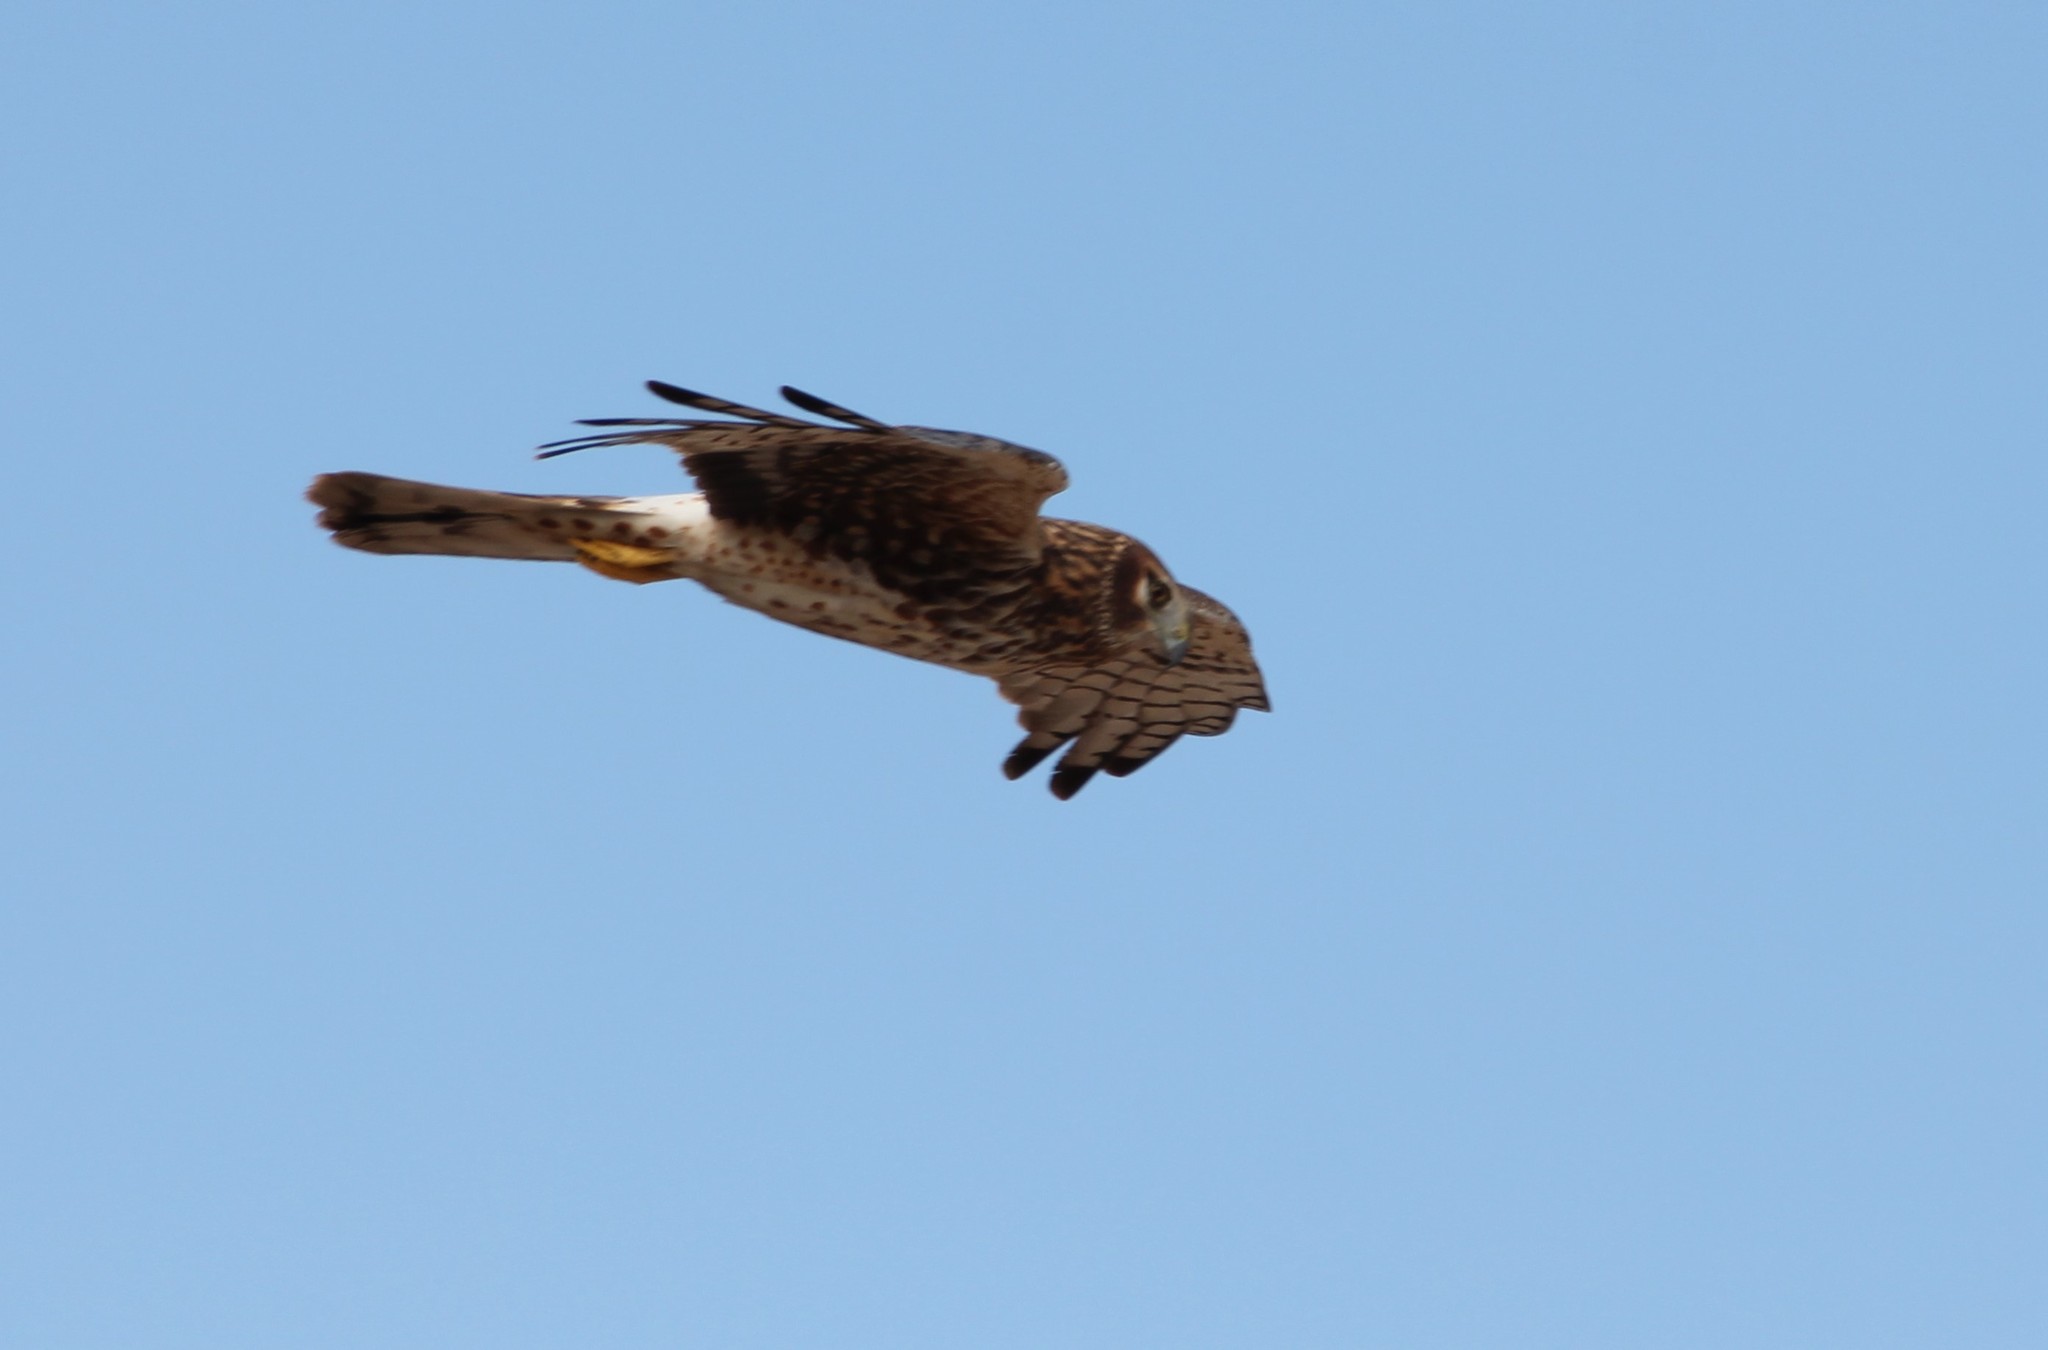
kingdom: Animalia
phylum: Chordata
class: Aves
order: Accipitriformes
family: Accipitridae
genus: Circus
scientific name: Circus cyaneus
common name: Hen harrier
